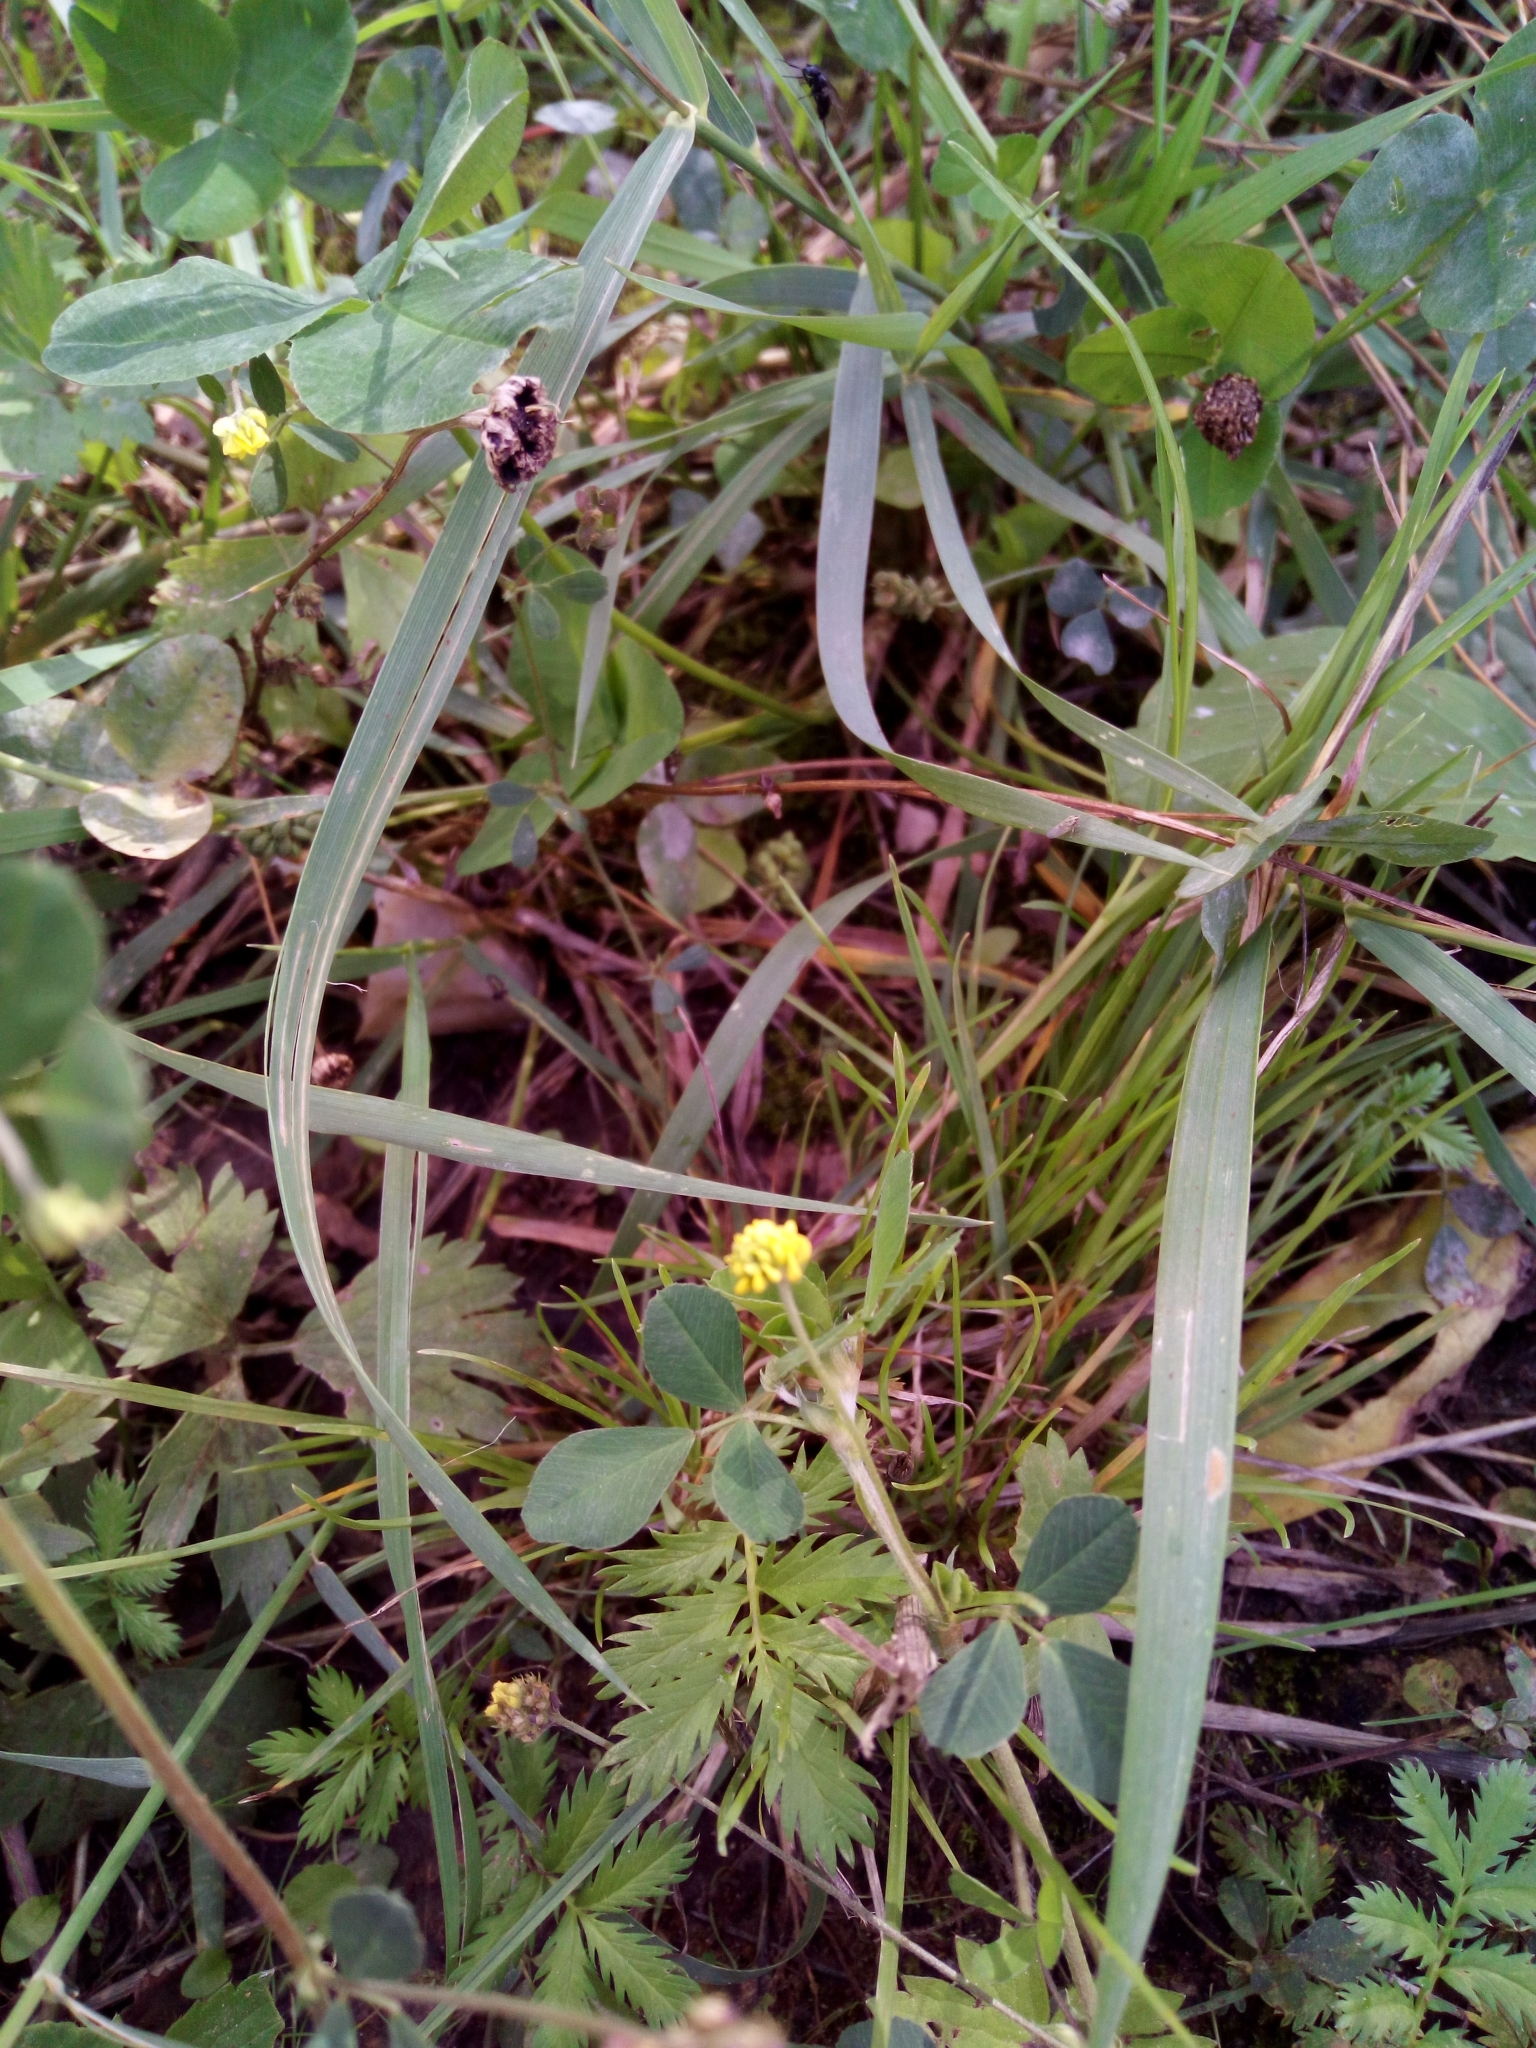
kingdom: Plantae
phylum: Tracheophyta
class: Magnoliopsida
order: Fabales
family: Fabaceae
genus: Medicago
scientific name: Medicago lupulina
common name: Black medick
